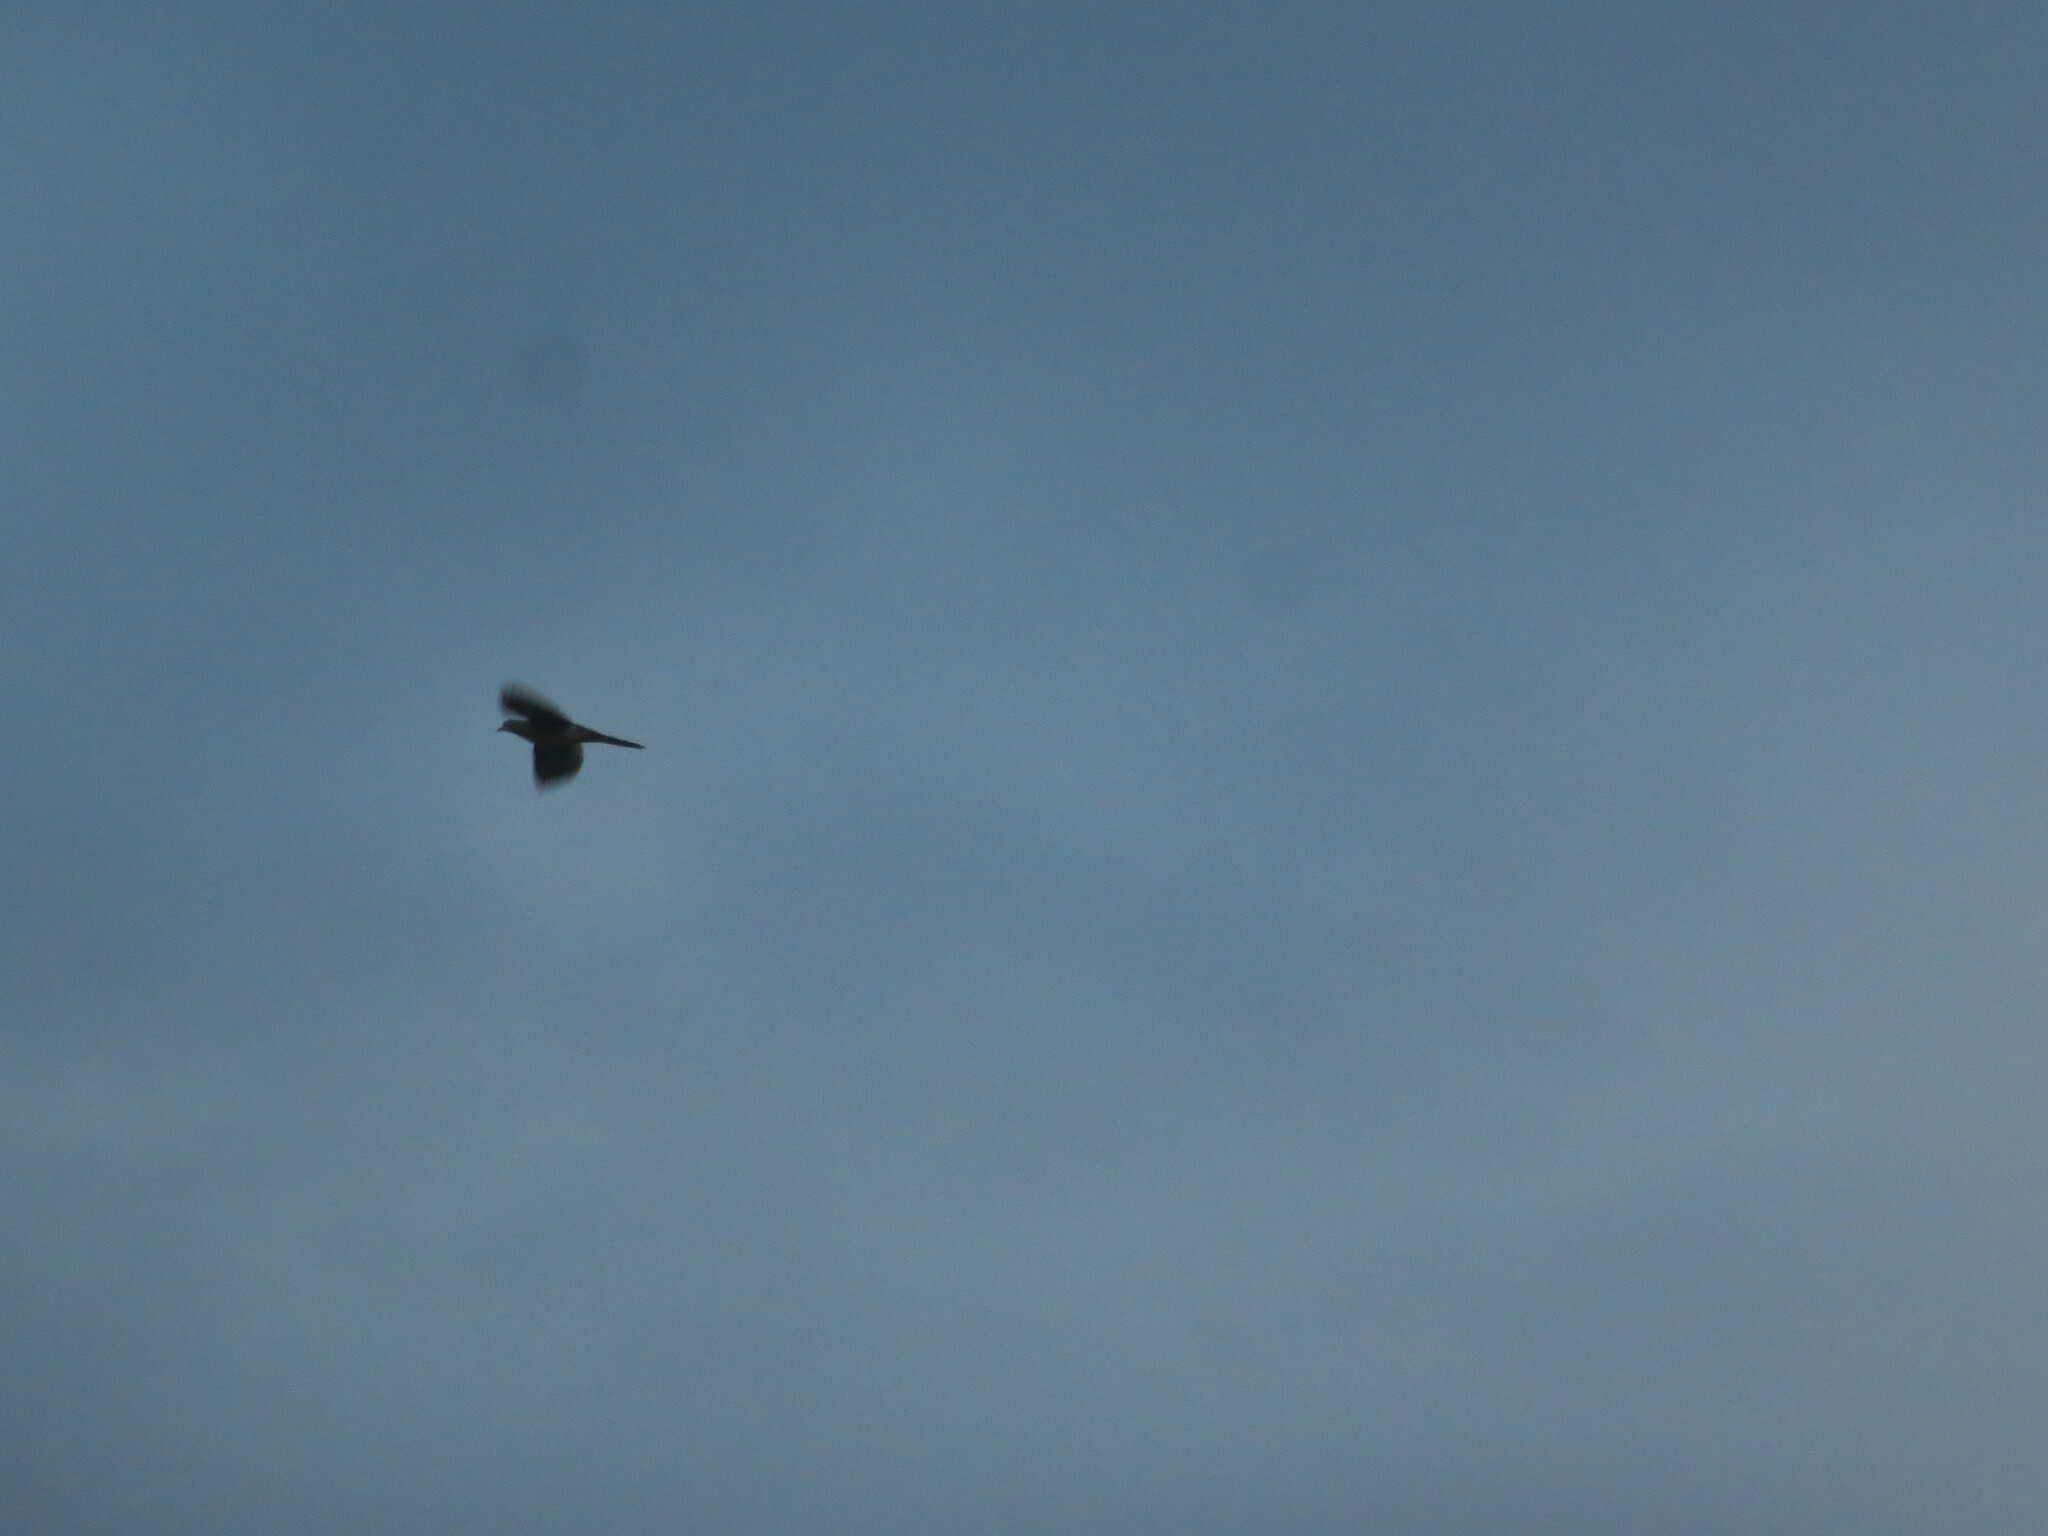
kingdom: Animalia
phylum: Chordata
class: Aves
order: Columbiformes
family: Columbidae
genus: Zenaida
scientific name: Zenaida macroura
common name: Mourning dove
